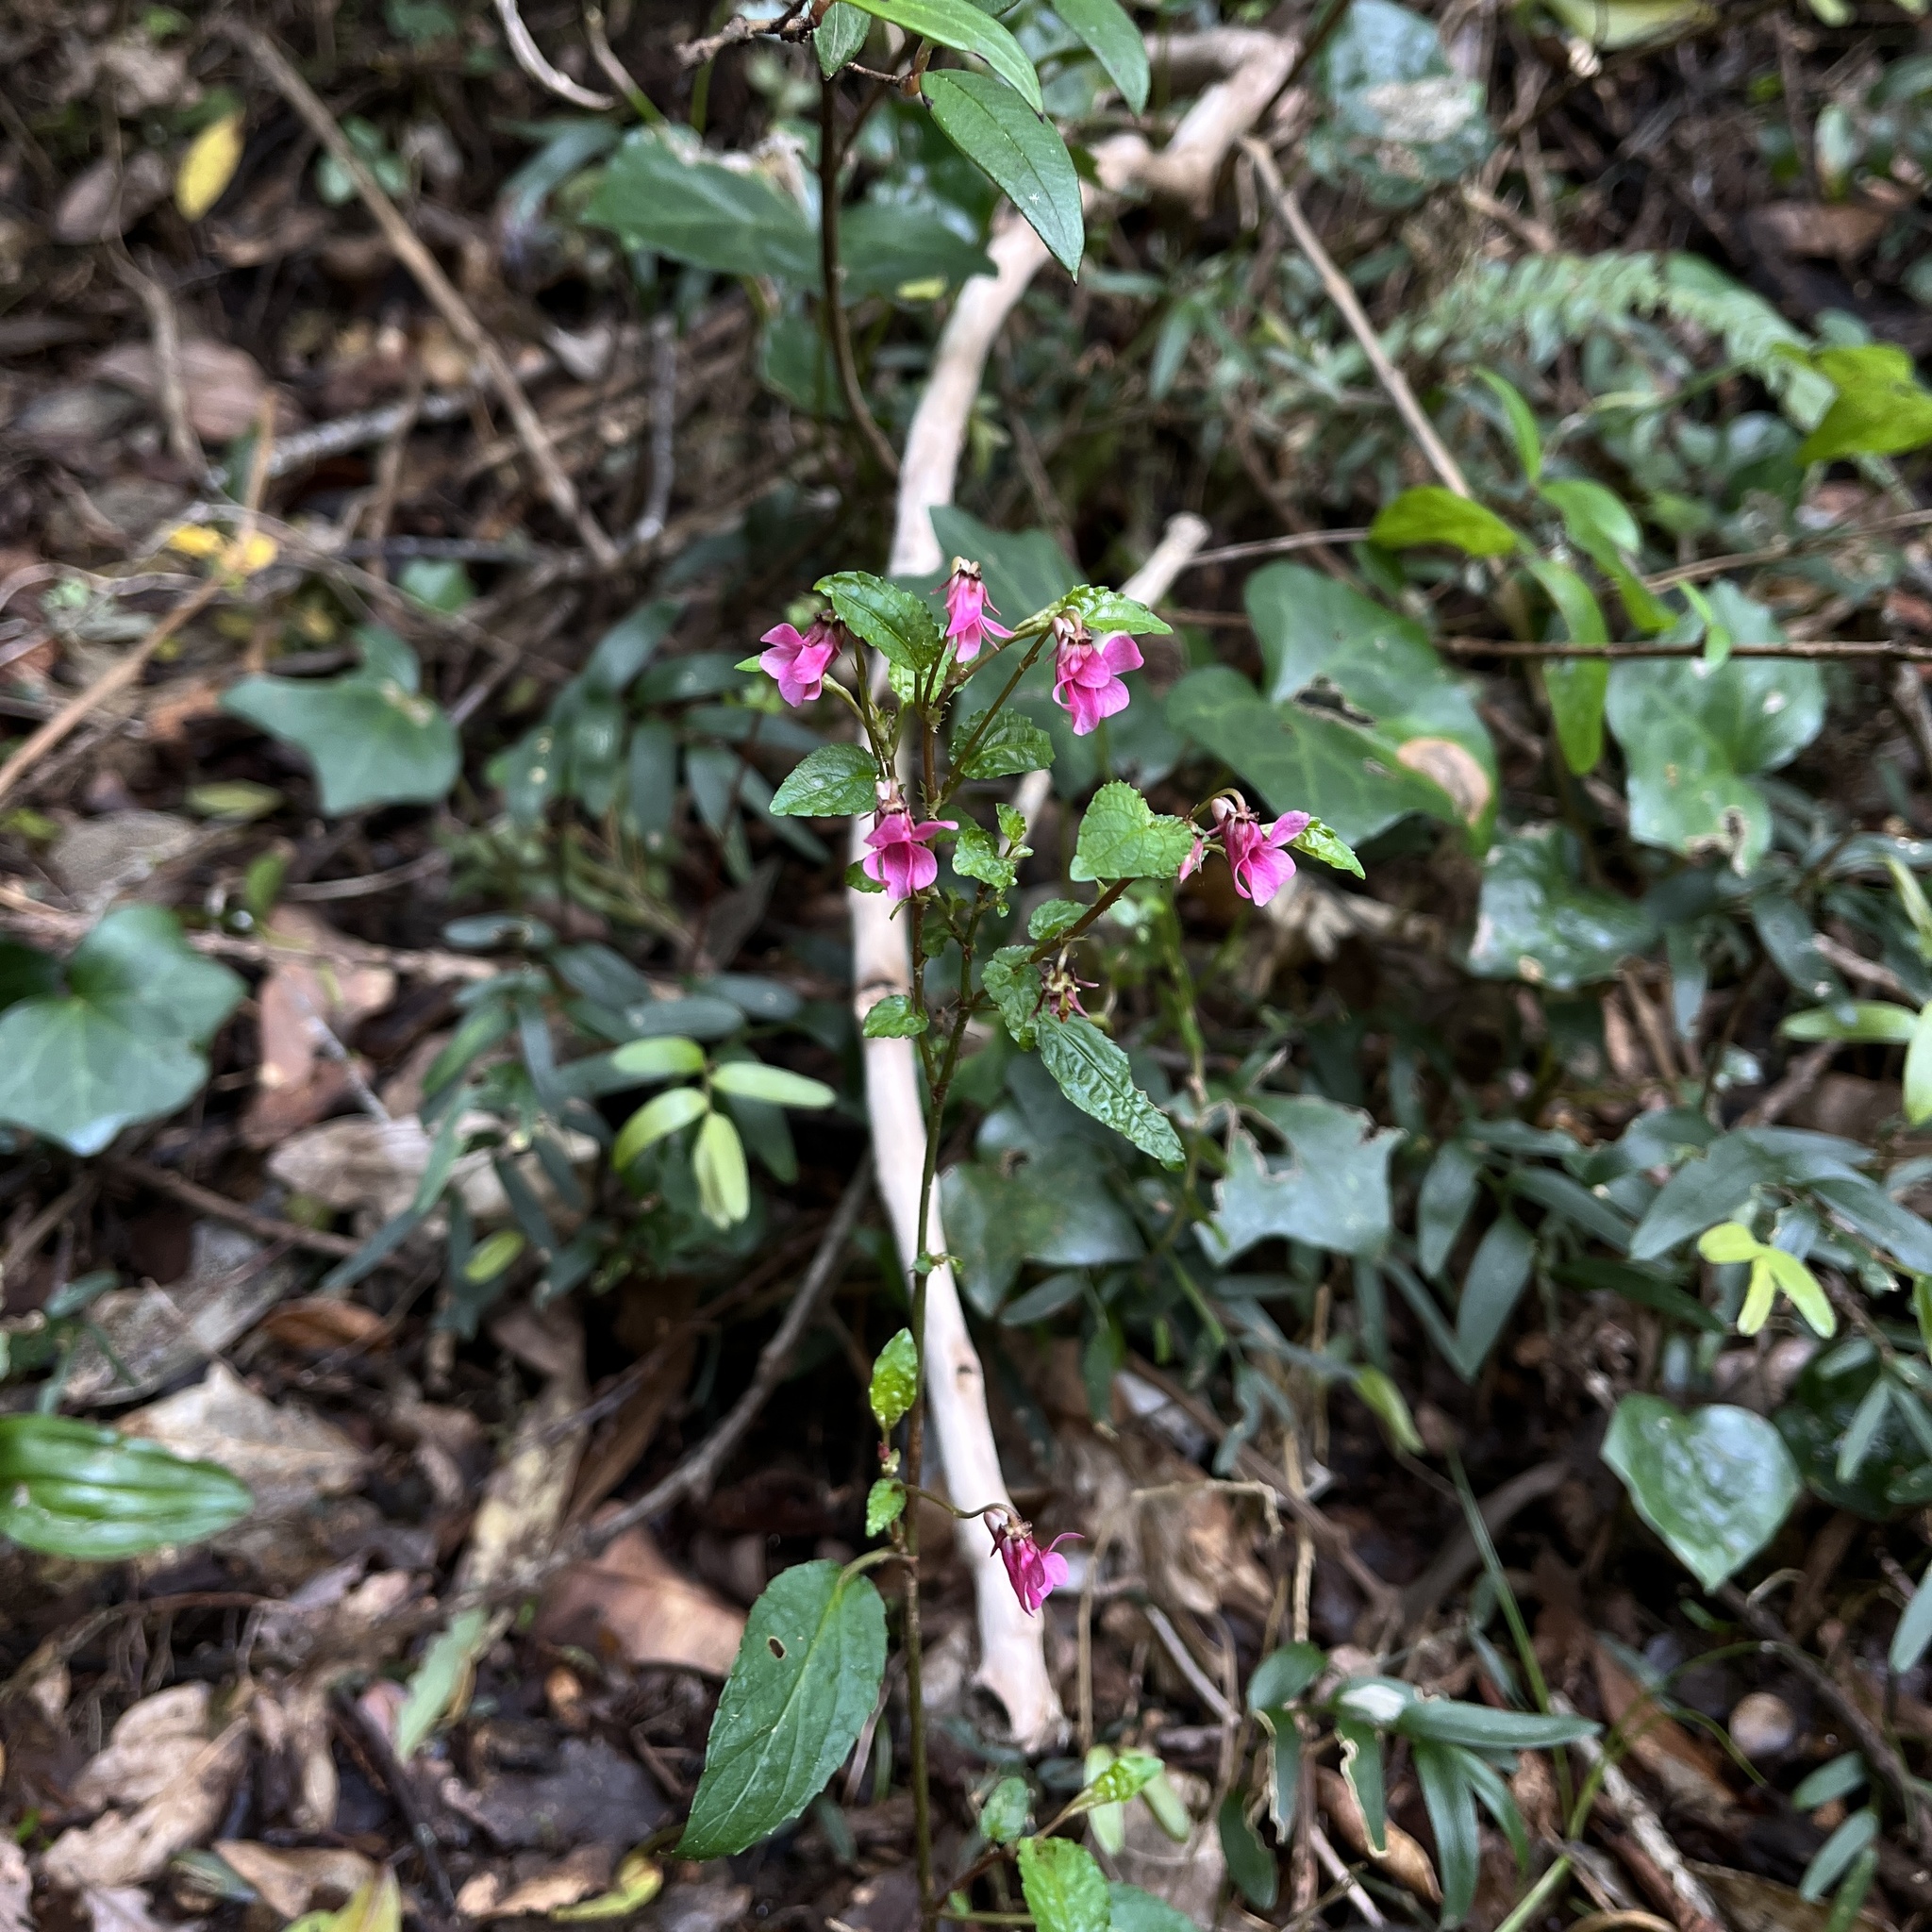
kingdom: Plantae
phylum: Tracheophyta
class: Magnoliopsida
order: Malpighiales
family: Violaceae
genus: Viola
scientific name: Viola rubella
